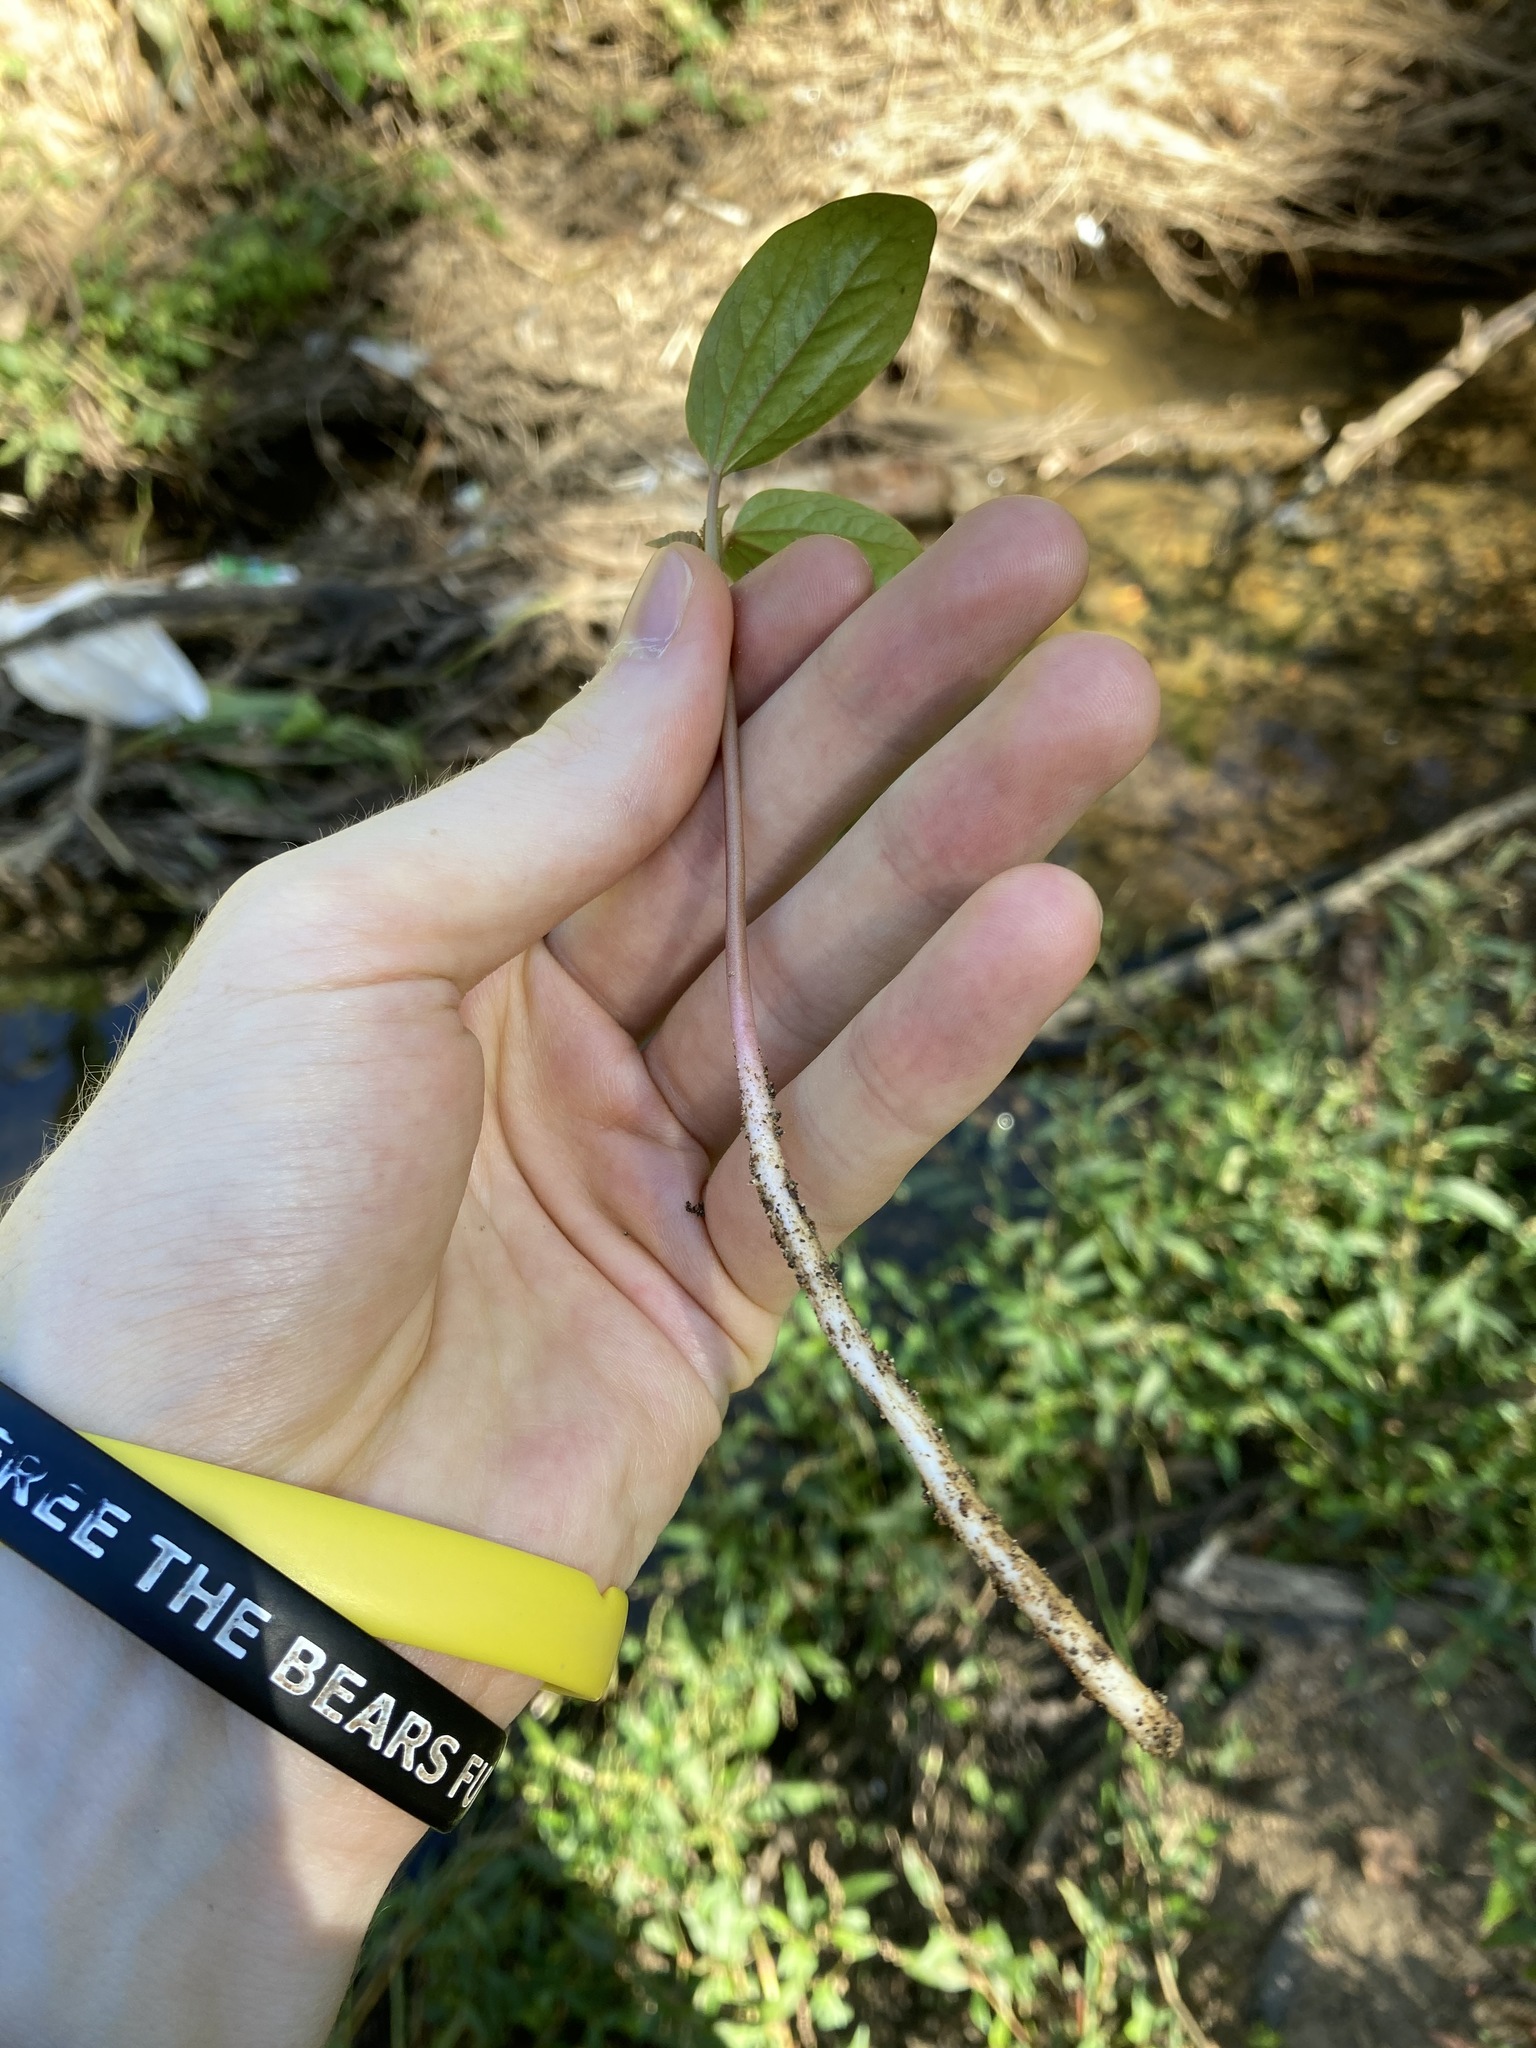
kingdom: Plantae
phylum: Tracheophyta
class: Magnoliopsida
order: Malpighiales
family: Euphorbiaceae
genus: Ricinus
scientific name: Ricinus communis
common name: Castor-oil-plant
